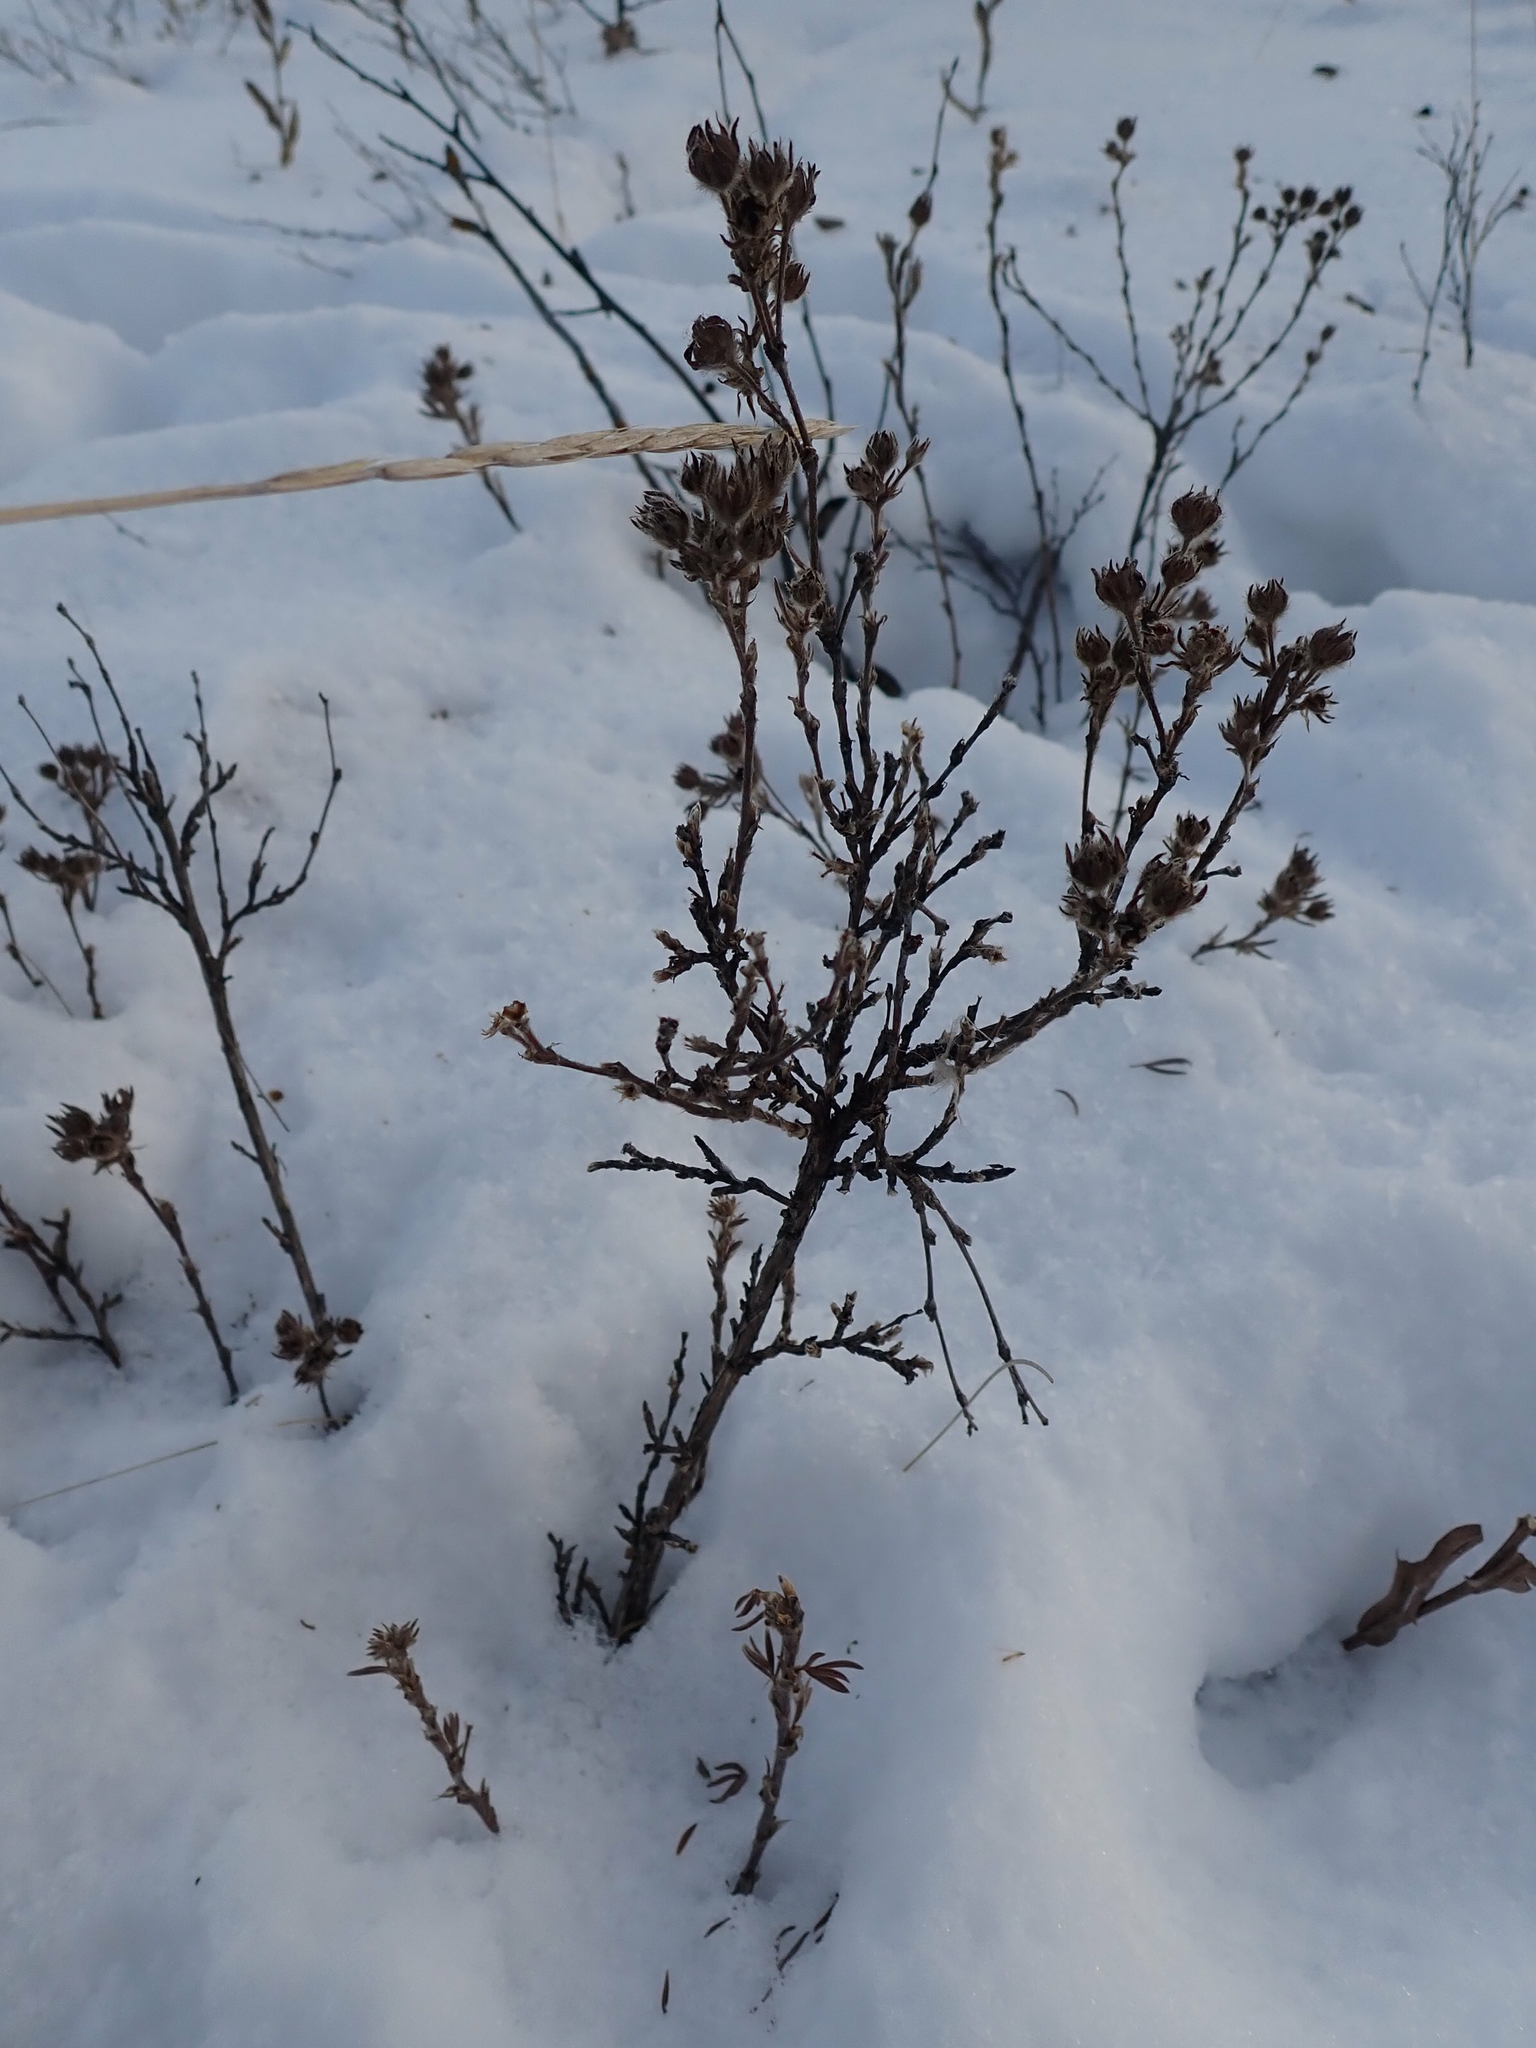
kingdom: Plantae
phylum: Tracheophyta
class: Magnoliopsida
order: Rosales
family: Rosaceae
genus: Dasiphora
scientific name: Dasiphora fruticosa
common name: Shrubby cinquefoil
